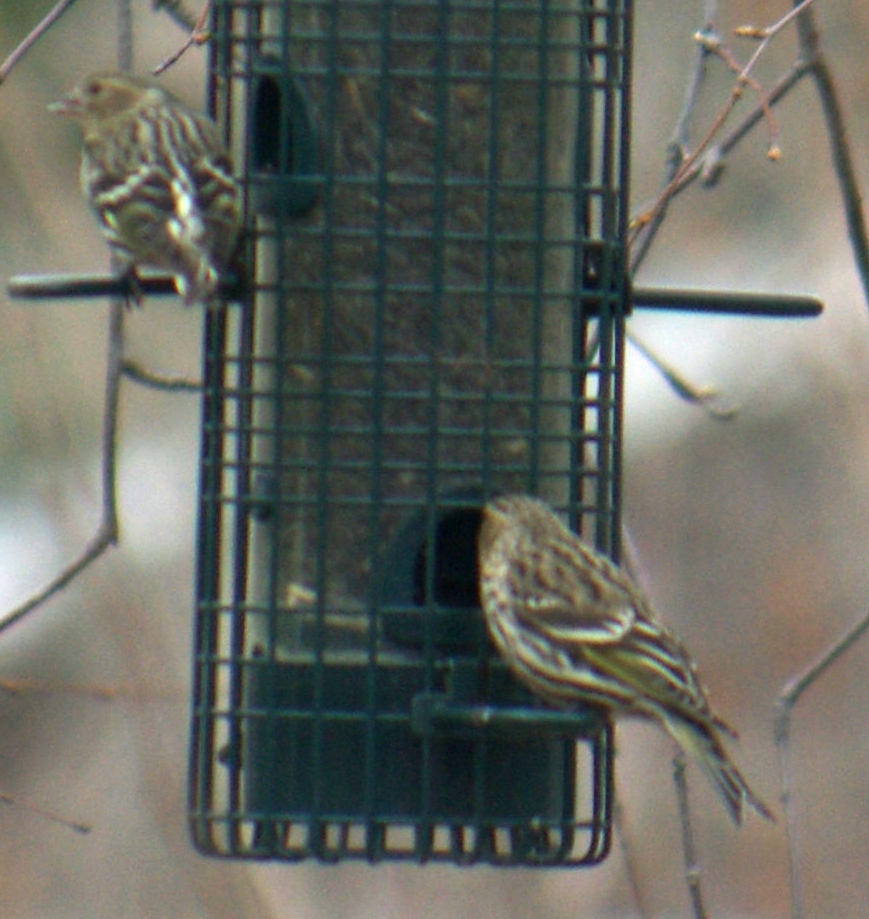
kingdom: Animalia
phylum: Chordata
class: Aves
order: Passeriformes
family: Fringillidae
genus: Spinus
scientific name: Spinus pinus
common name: Pine siskin
